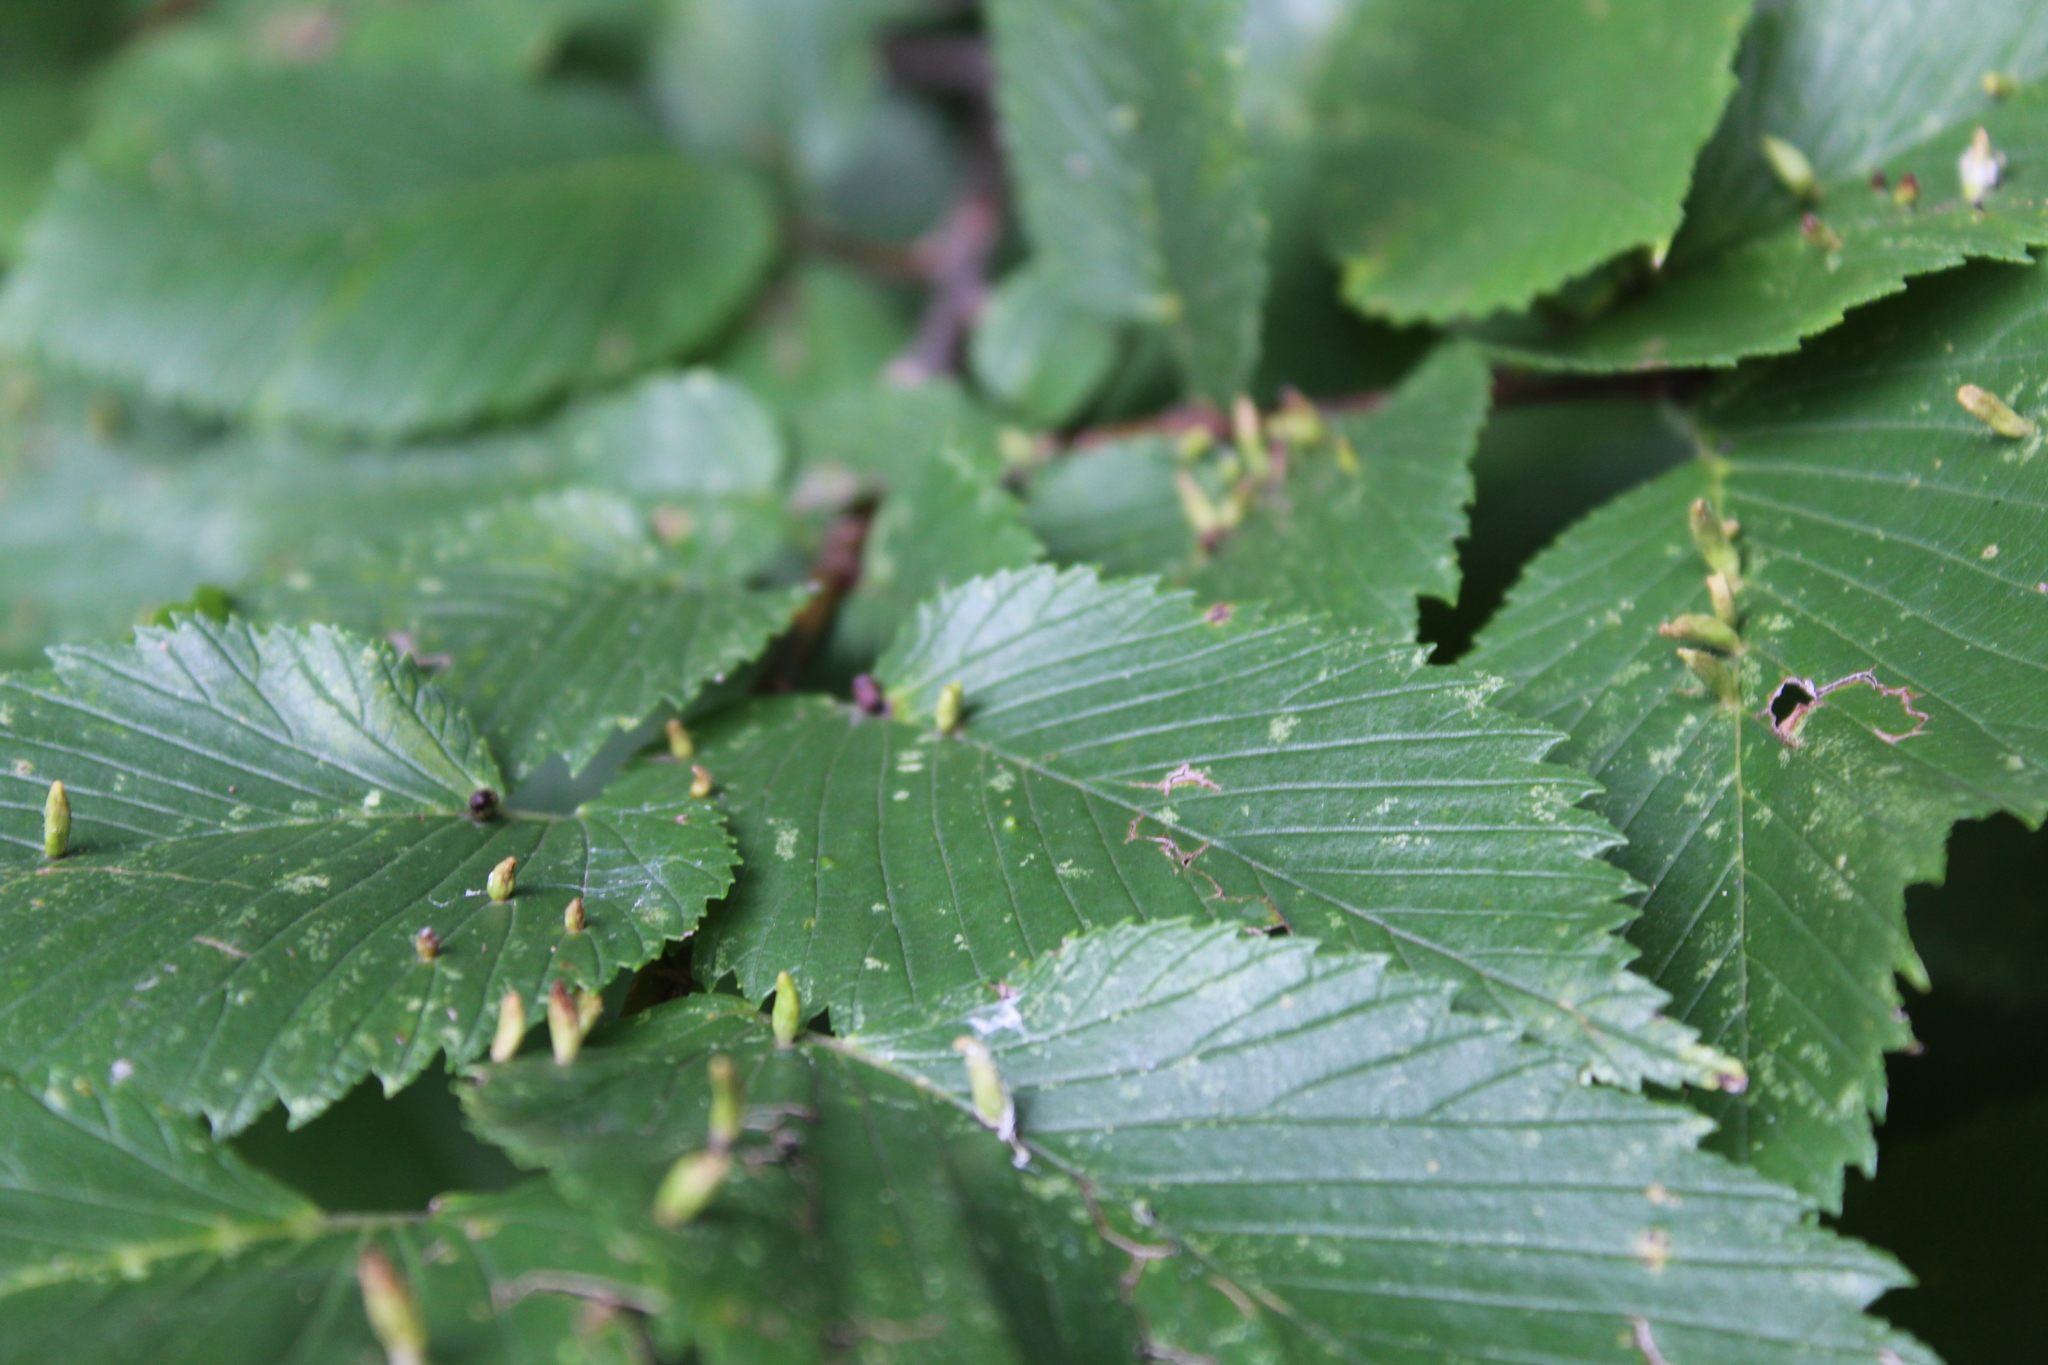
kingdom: Animalia
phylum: Arthropoda
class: Arachnida
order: Trombidiformes
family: Eriophyidae
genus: Aceria
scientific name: Aceria
